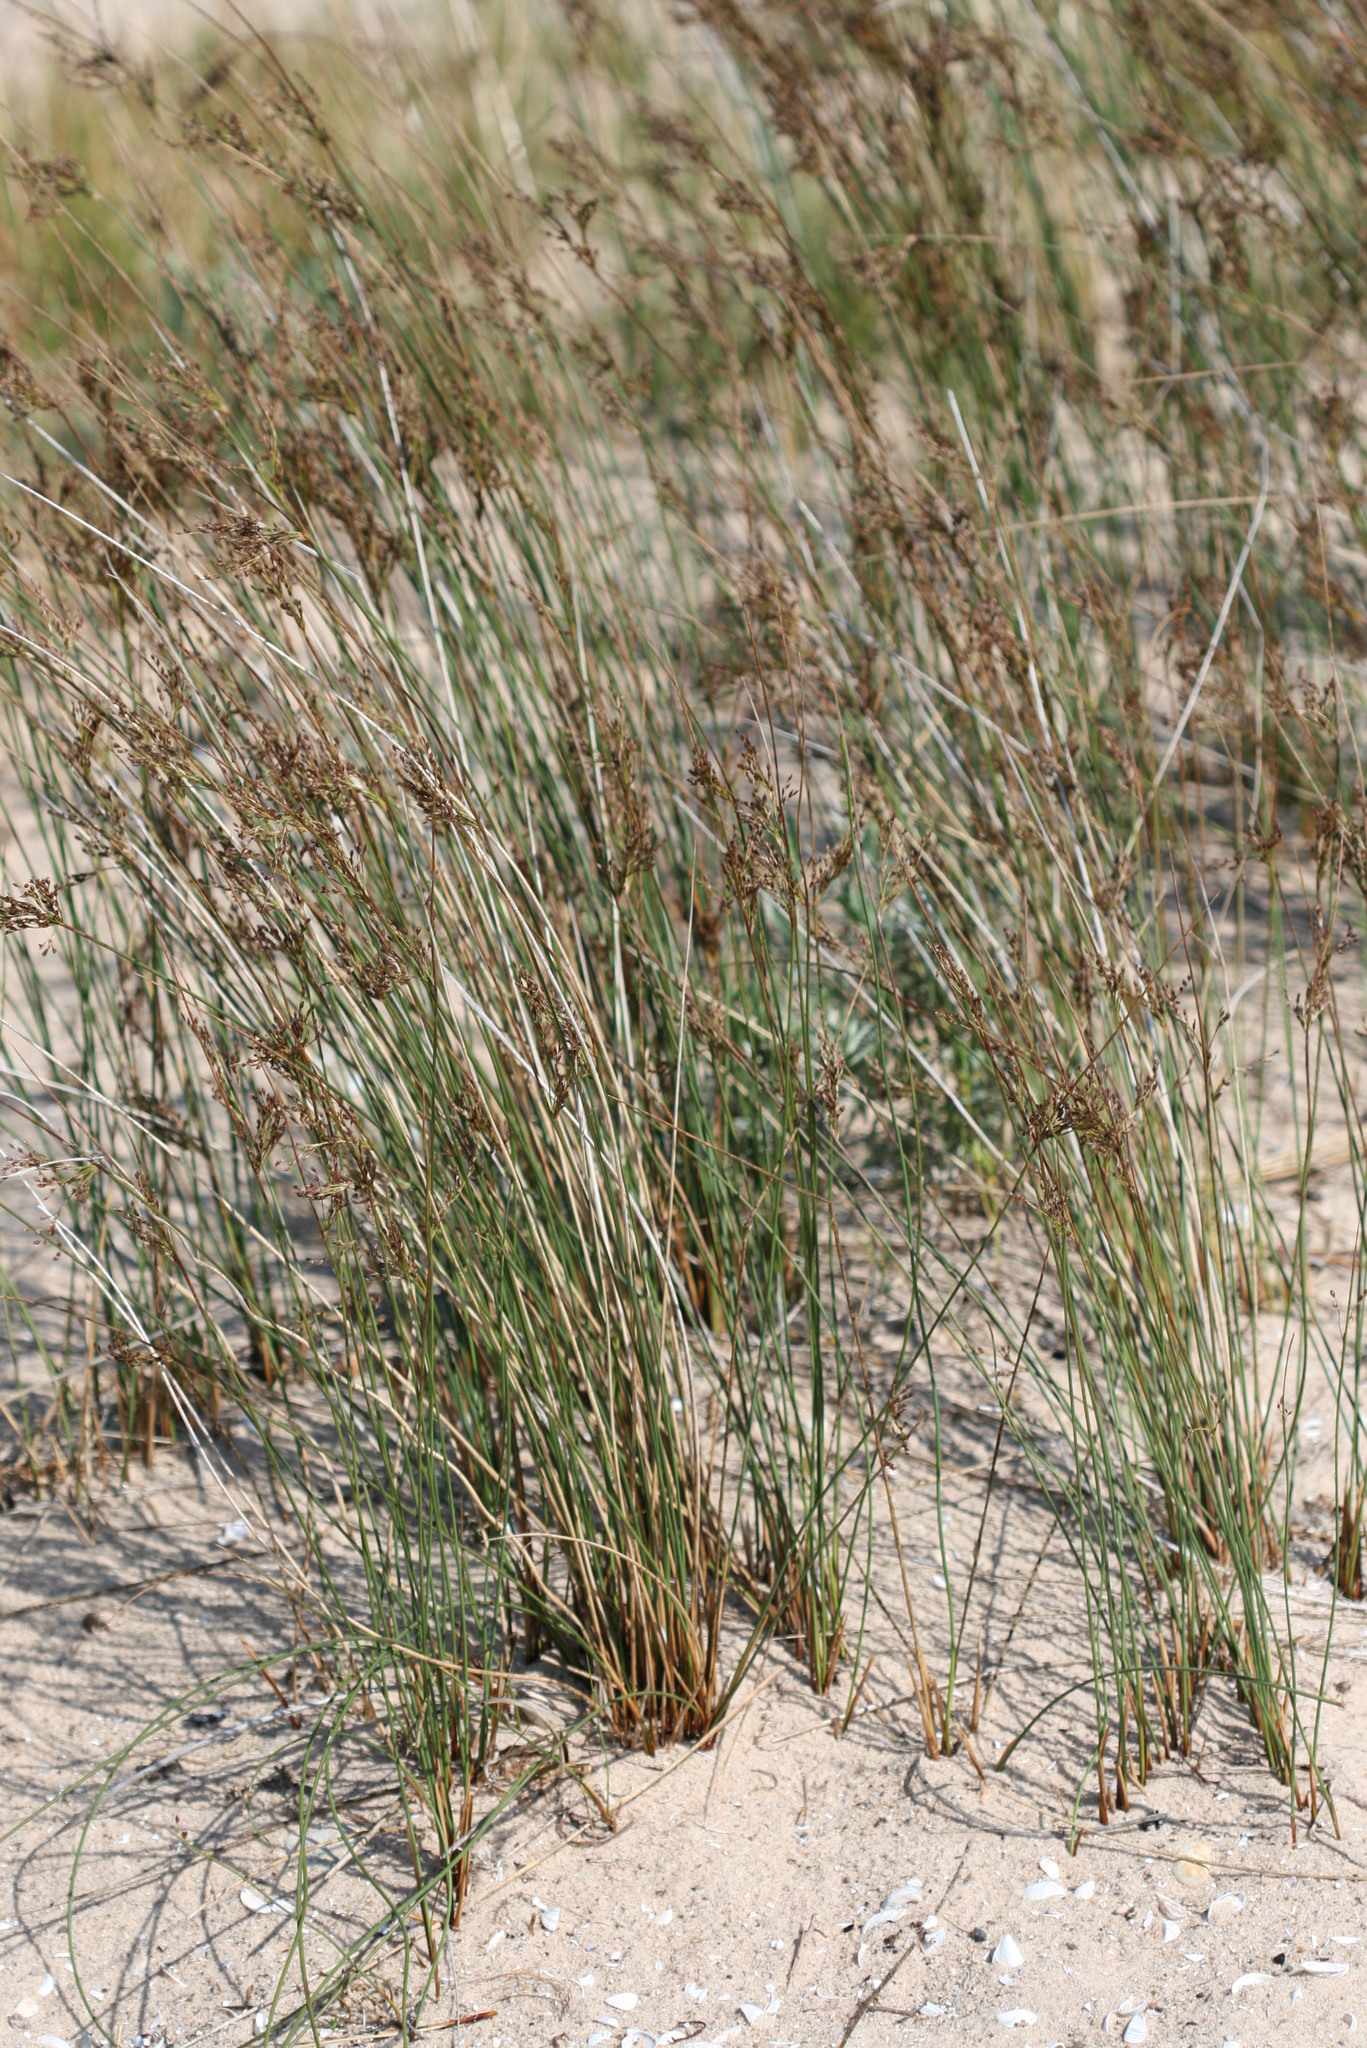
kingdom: Plantae
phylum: Tracheophyta
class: Liliopsida
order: Poales
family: Juncaceae
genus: Juncus
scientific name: Juncus balticus
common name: Baltic rush
